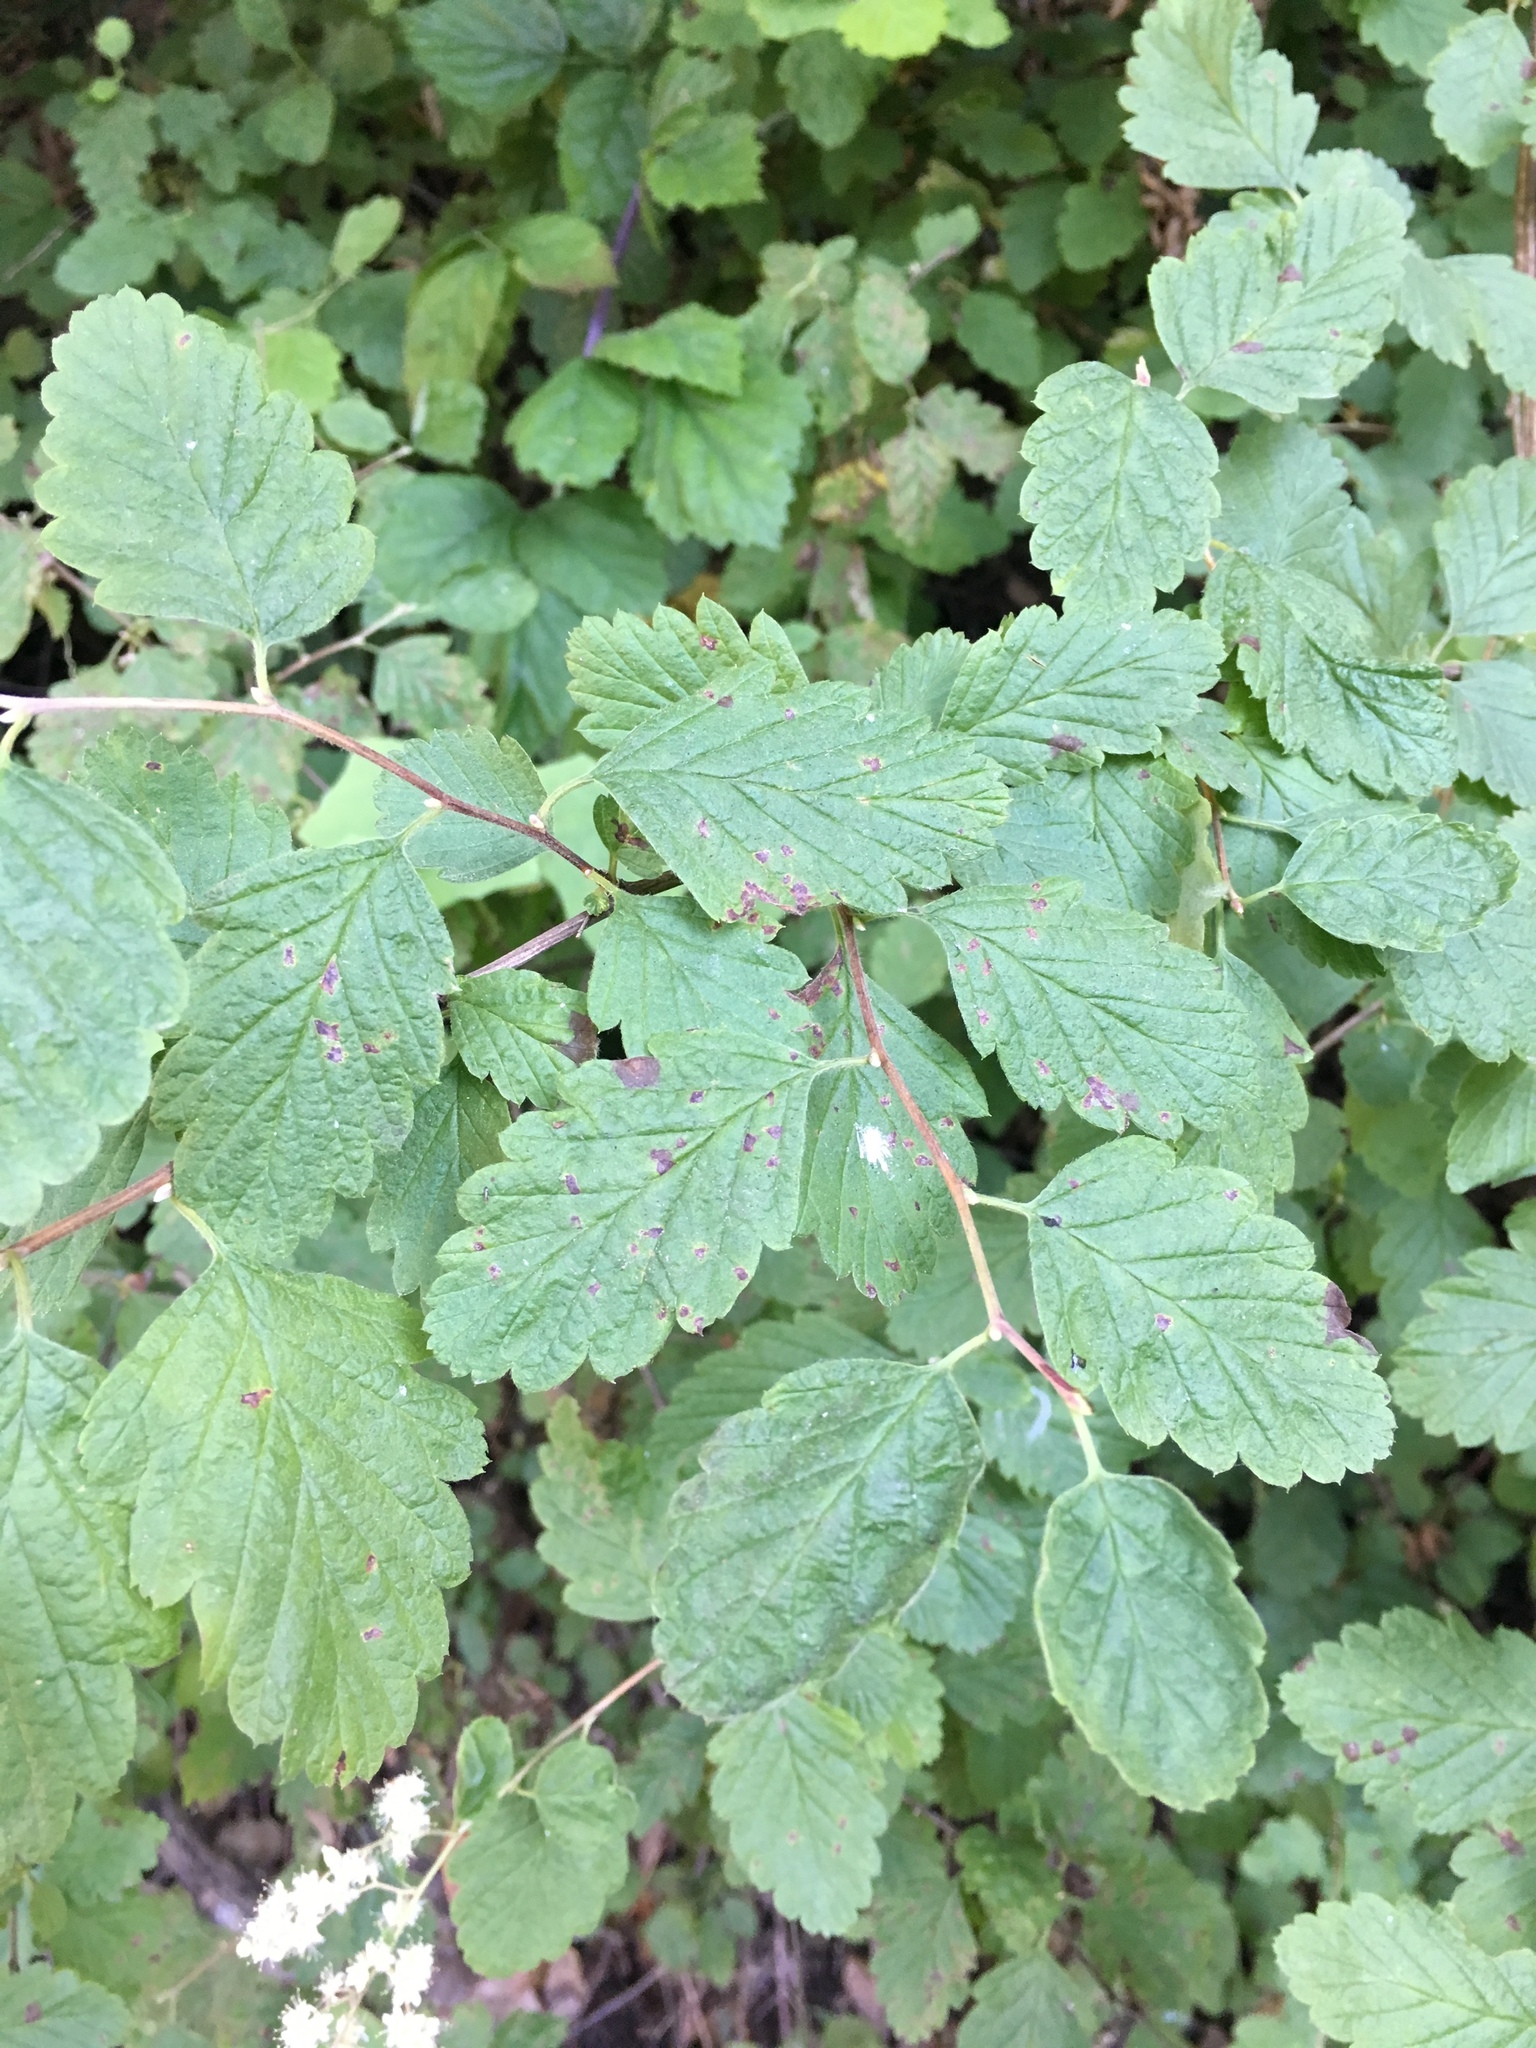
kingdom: Plantae
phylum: Tracheophyta
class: Magnoliopsida
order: Rosales
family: Rosaceae
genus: Holodiscus
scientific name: Holodiscus discolor
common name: Oceanspray
